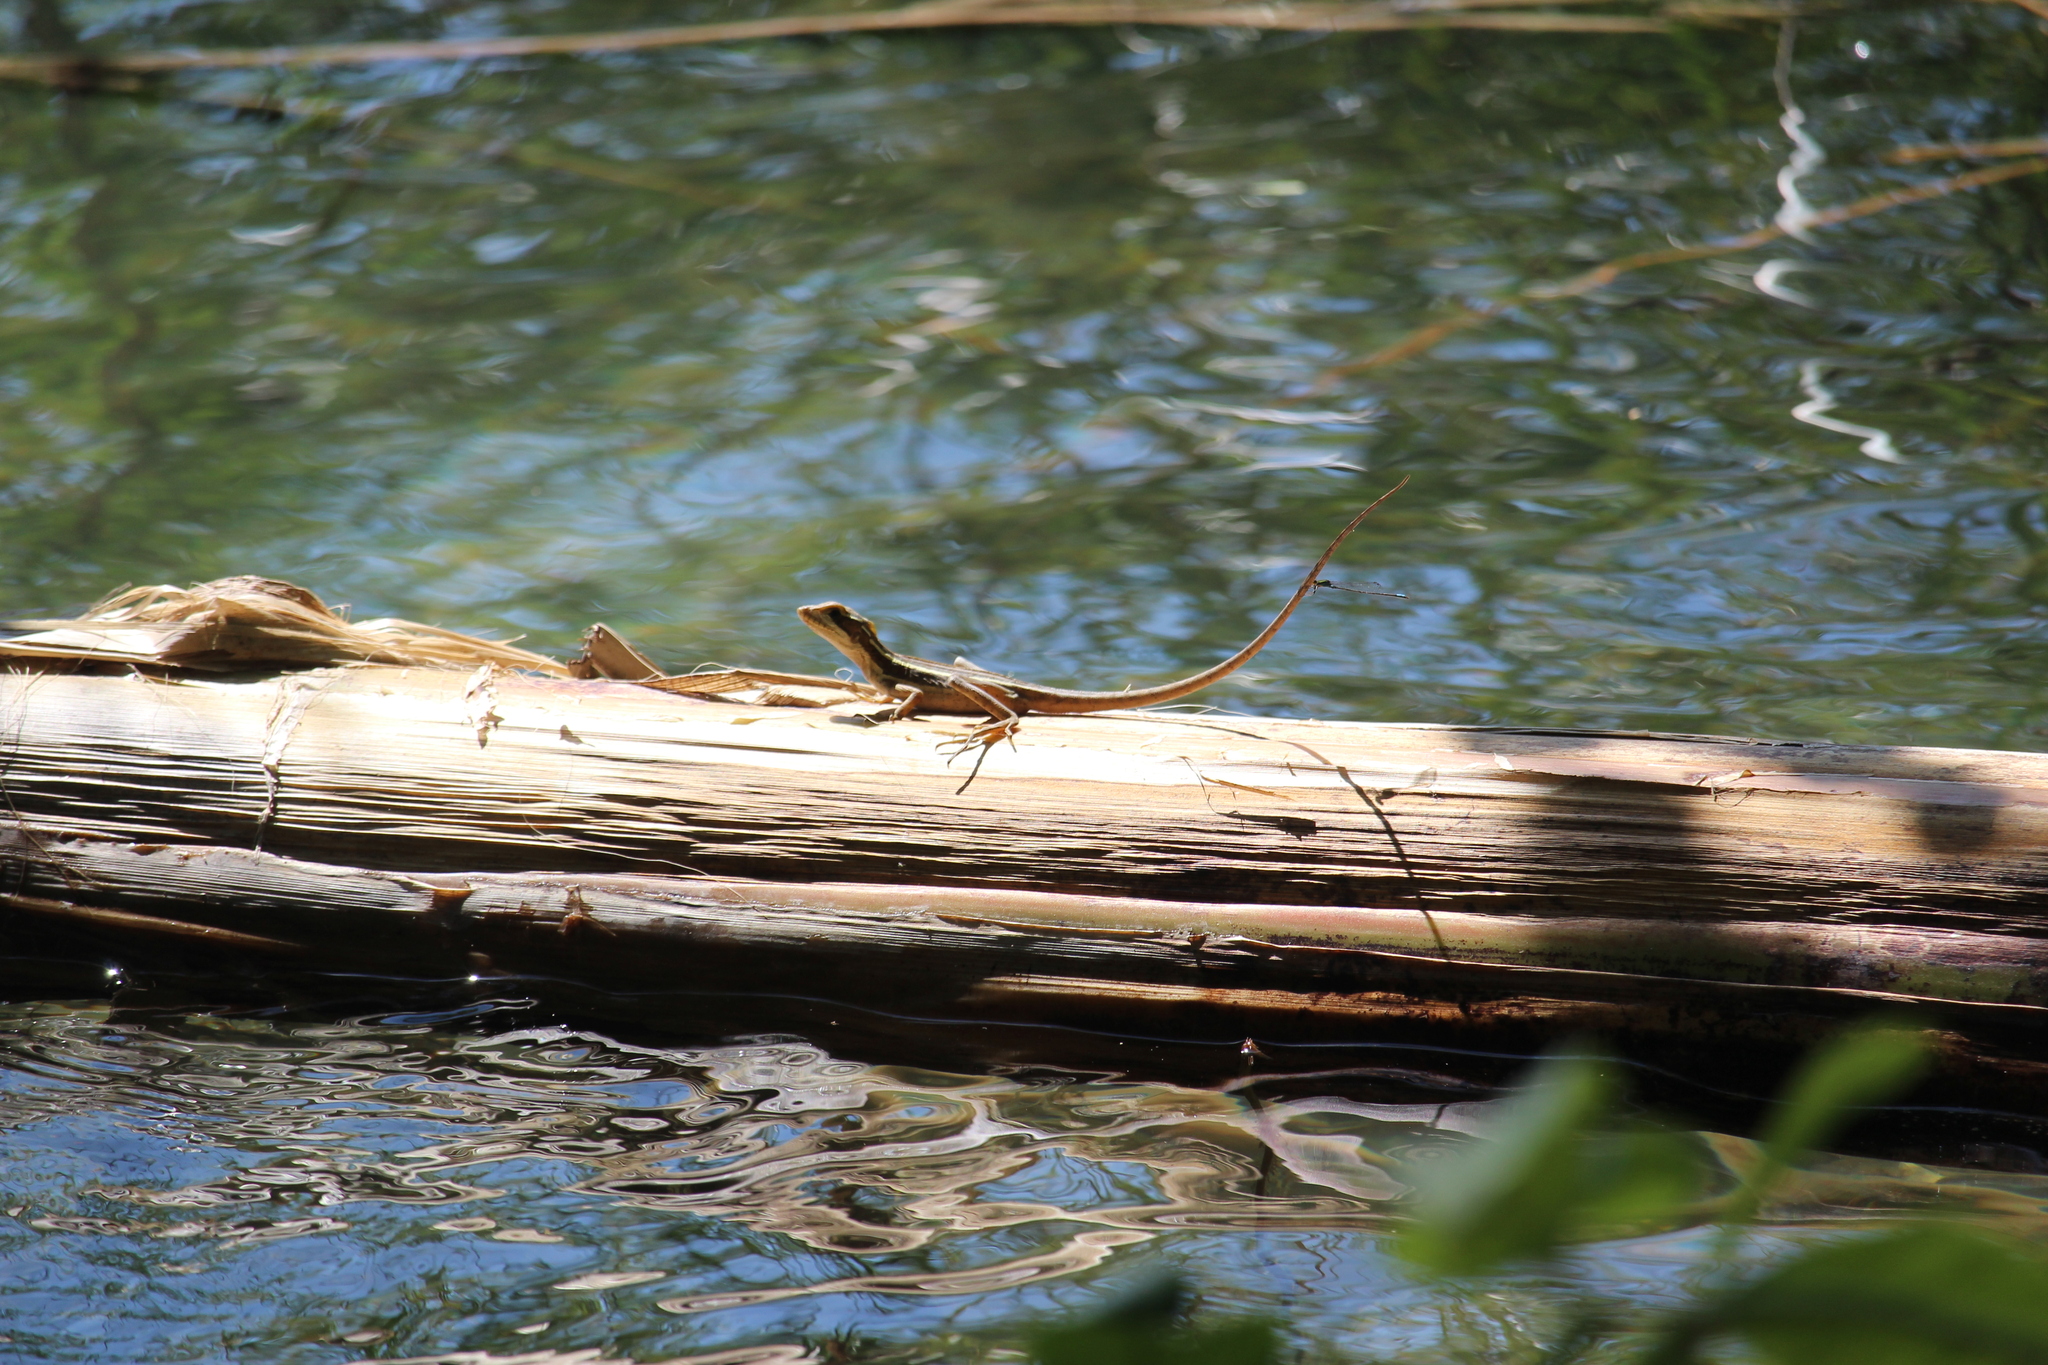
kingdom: Animalia
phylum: Chordata
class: Squamata
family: Corytophanidae
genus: Basiliscus
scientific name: Basiliscus vittatus
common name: Brown basilisk
